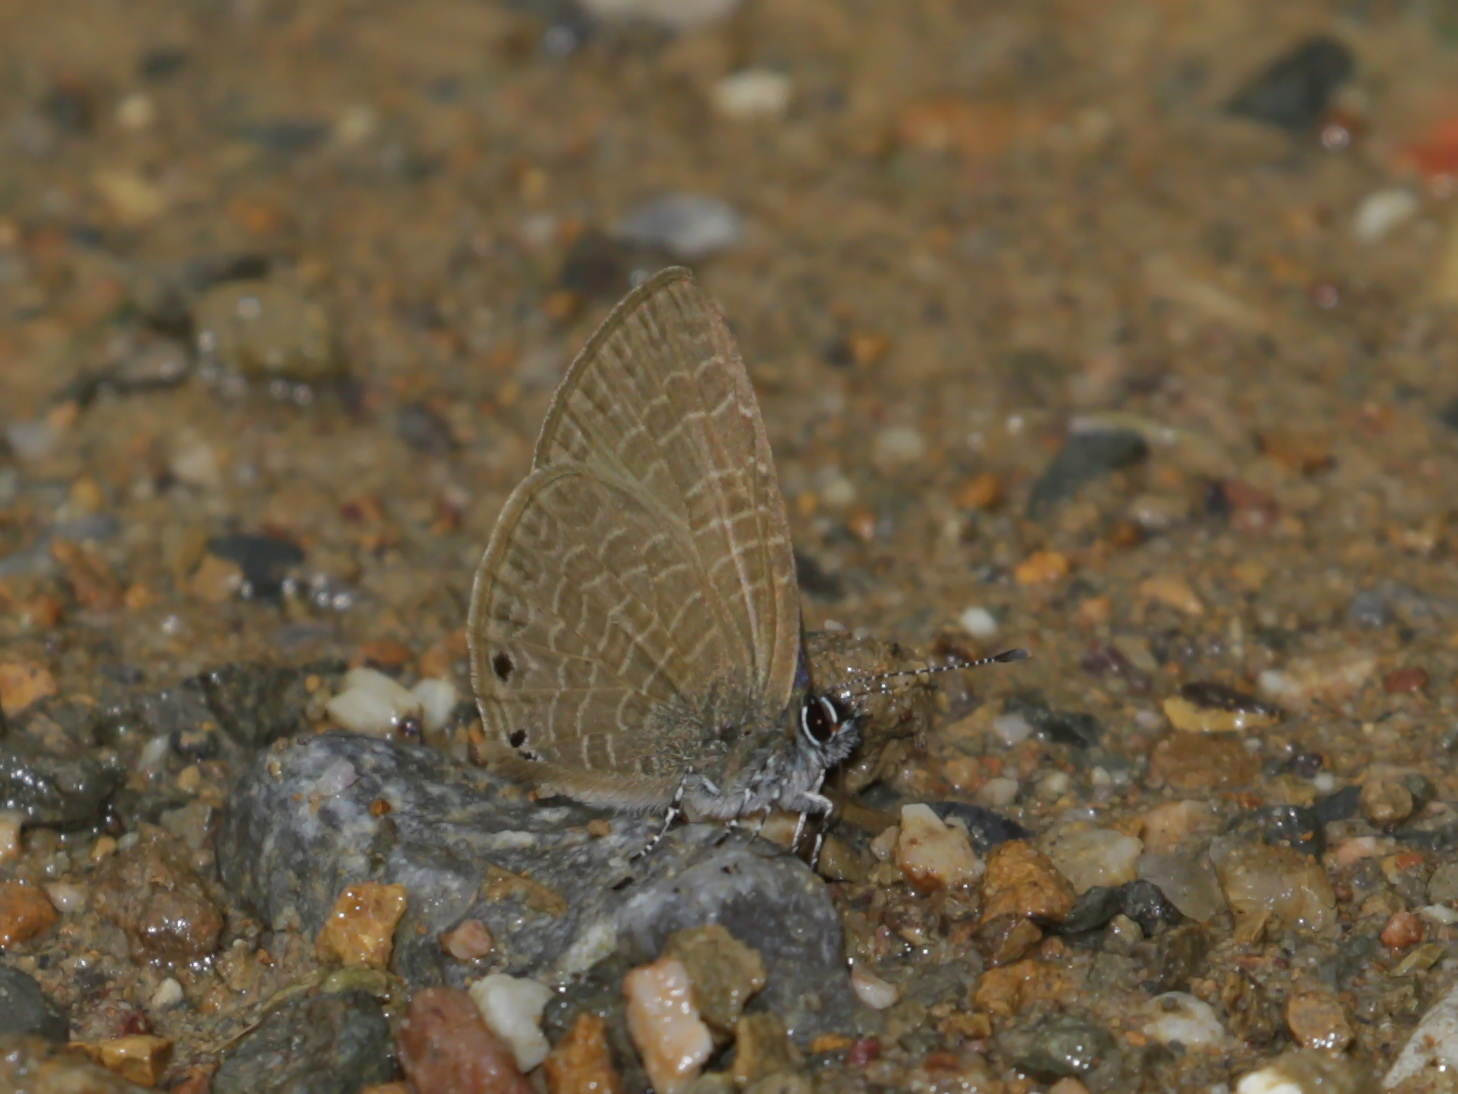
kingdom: Animalia
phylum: Arthropoda
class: Insecta
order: Lepidoptera
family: Lycaenidae
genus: Petrelaea
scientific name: Petrelaea dana
